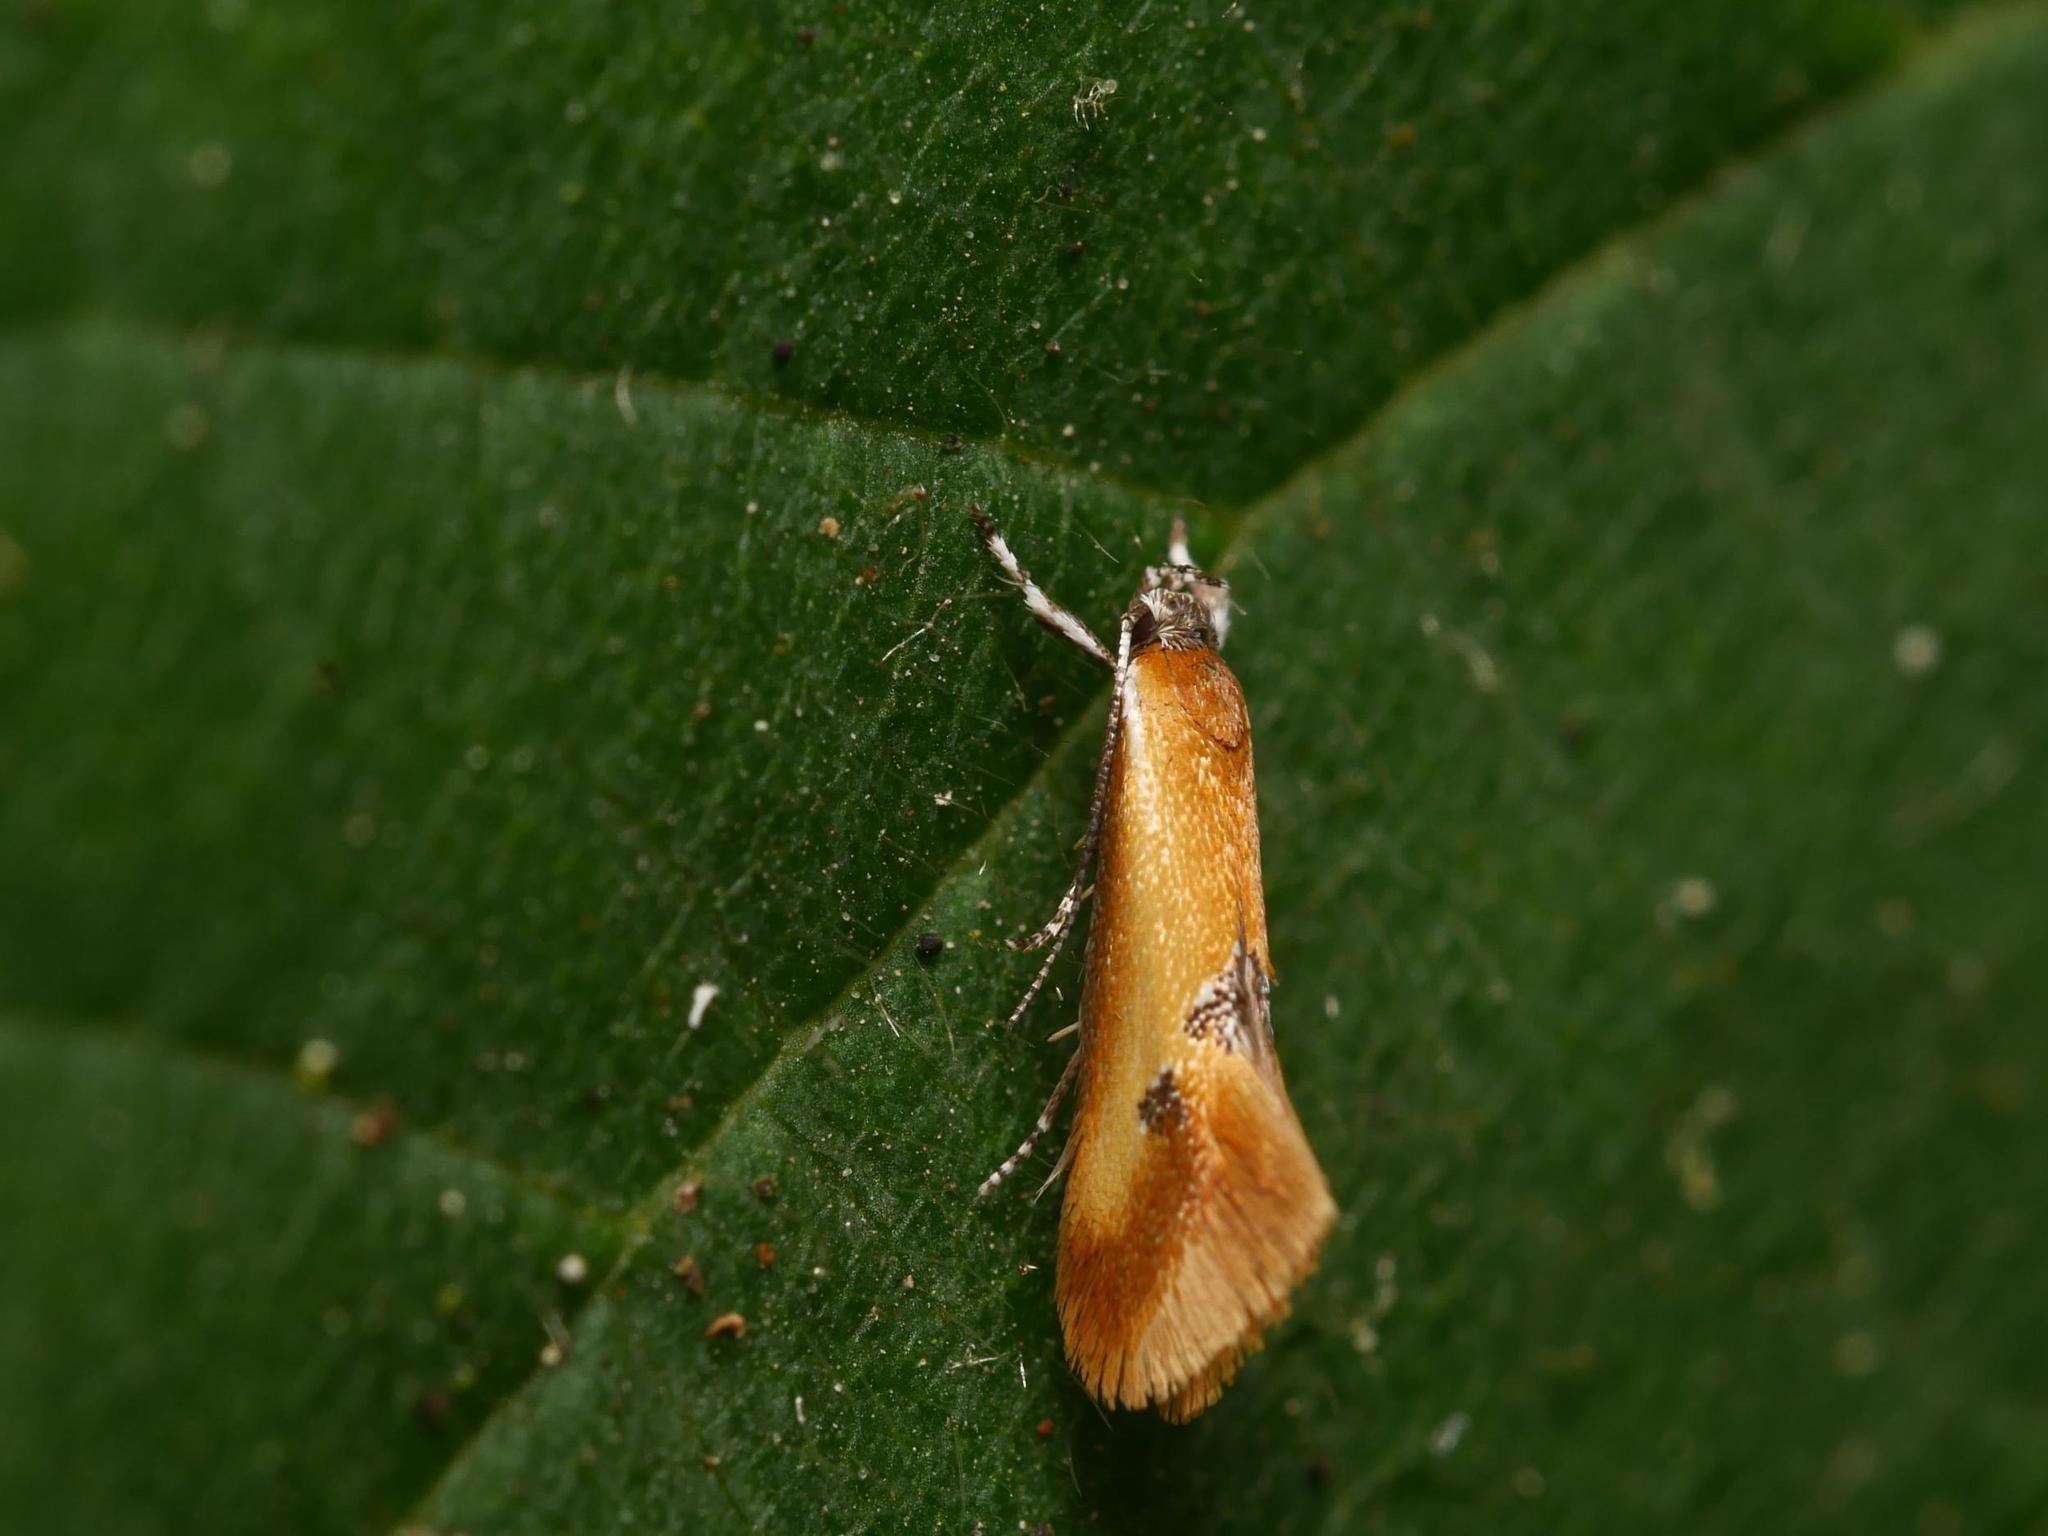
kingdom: Animalia
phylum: Arthropoda
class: Insecta
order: Lepidoptera
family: Oecophoridae
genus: Batia
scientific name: Batia lunaris
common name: Moth
